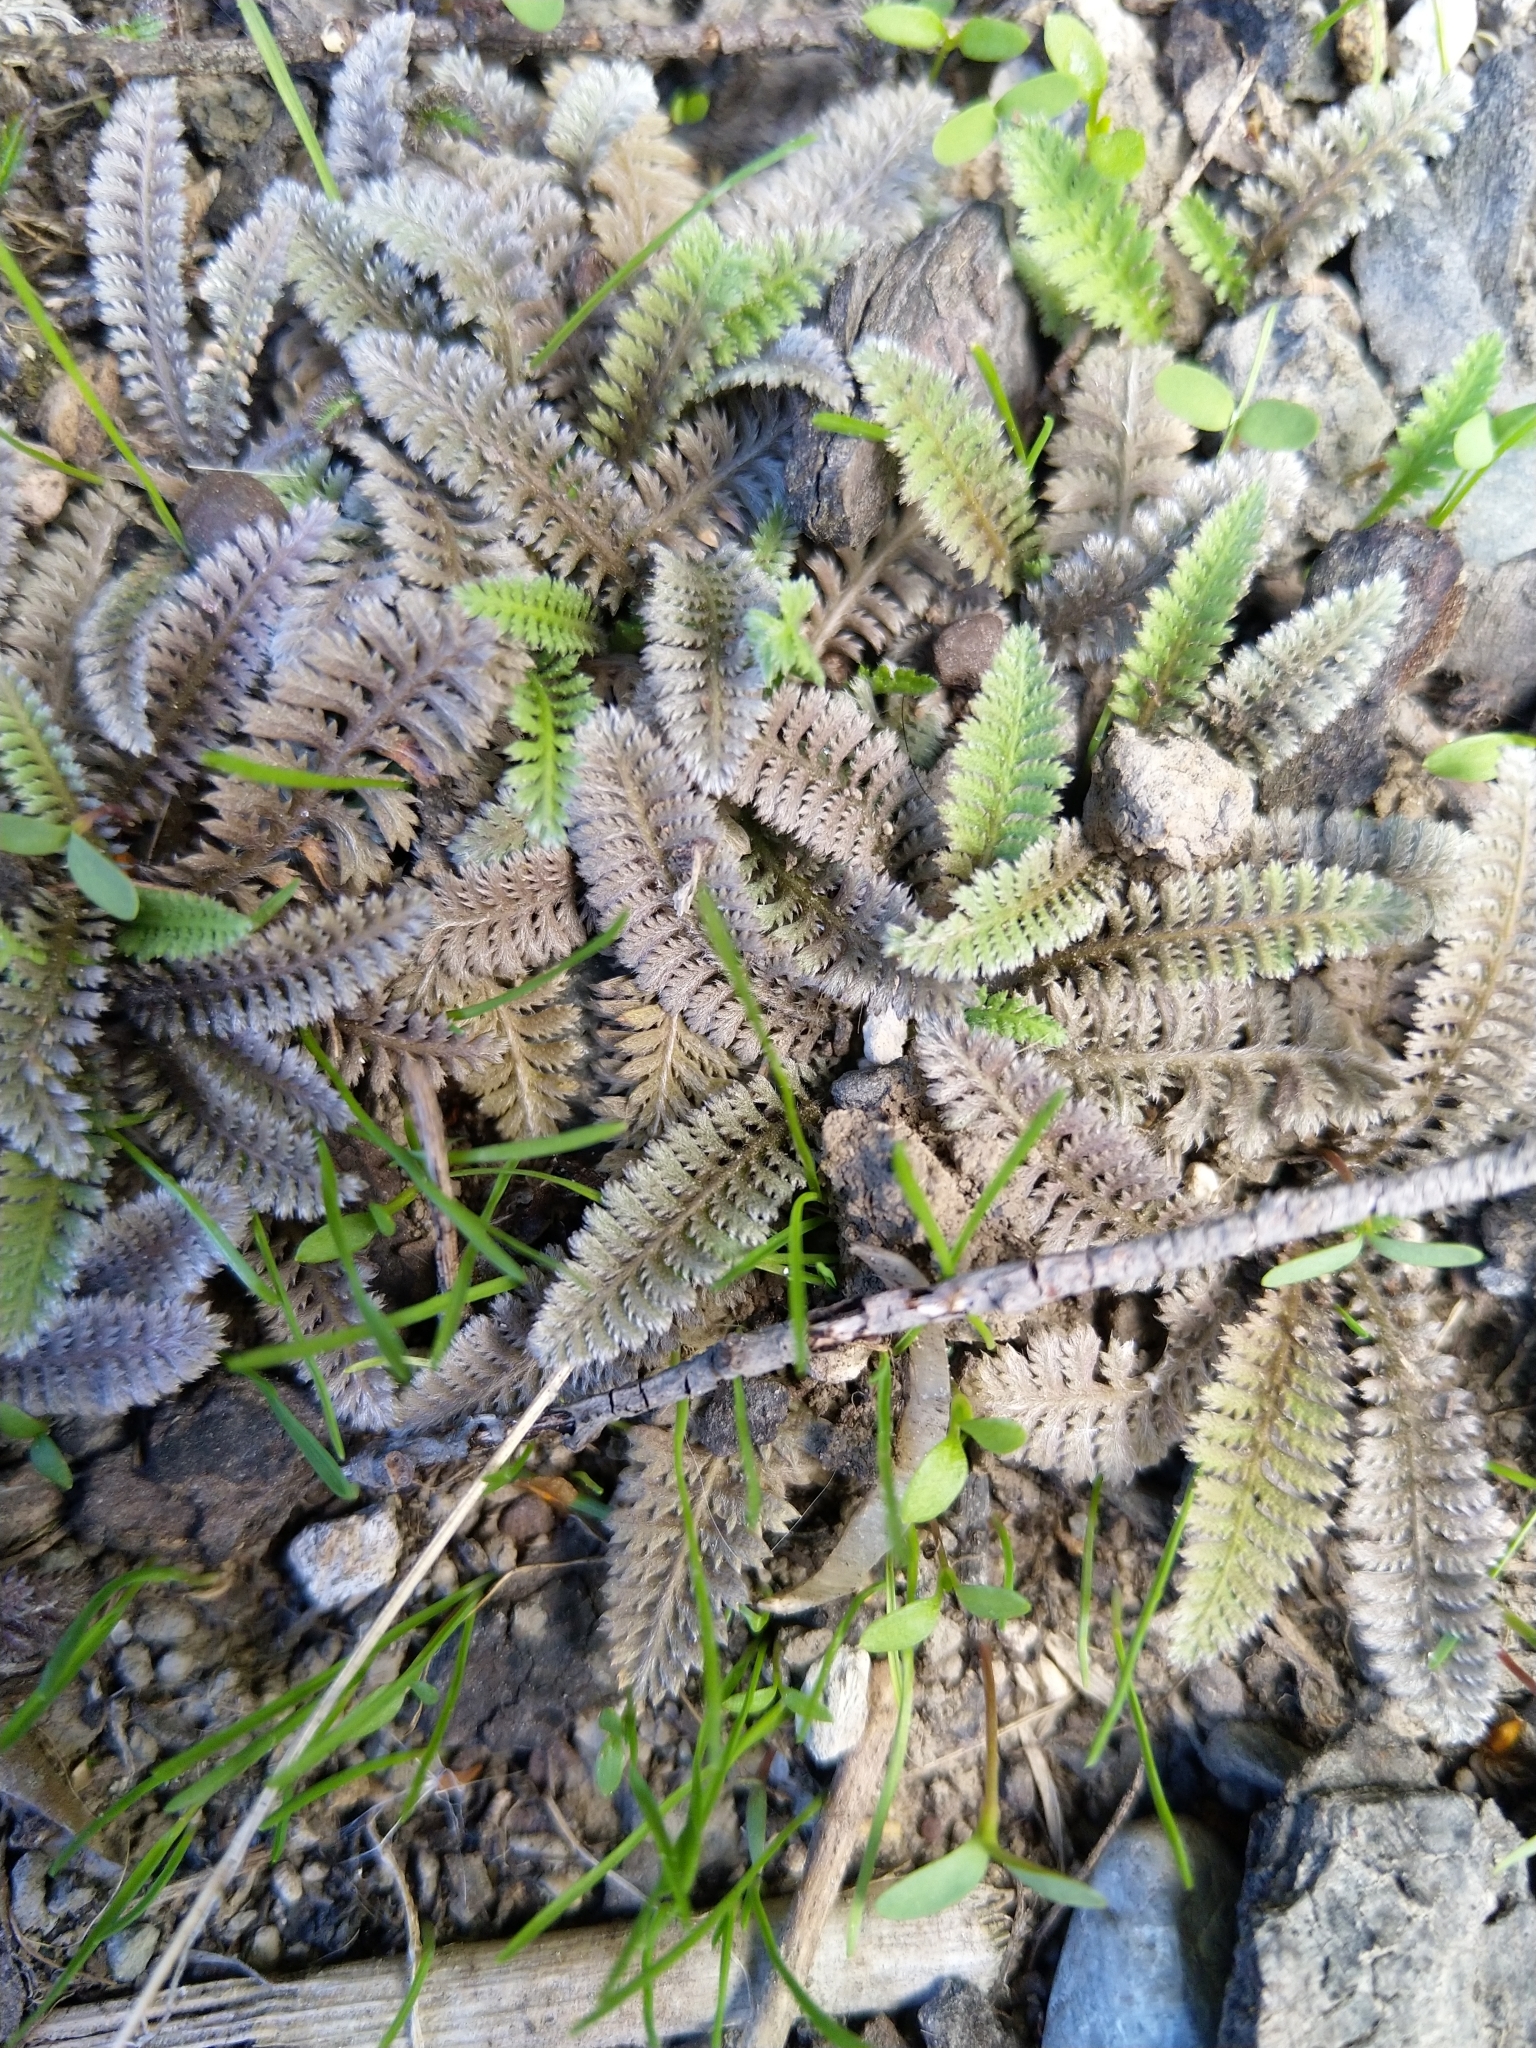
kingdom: Plantae
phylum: Tracheophyta
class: Magnoliopsida
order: Asterales
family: Asteraceae
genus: Leptinella
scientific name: Leptinella serrulata
